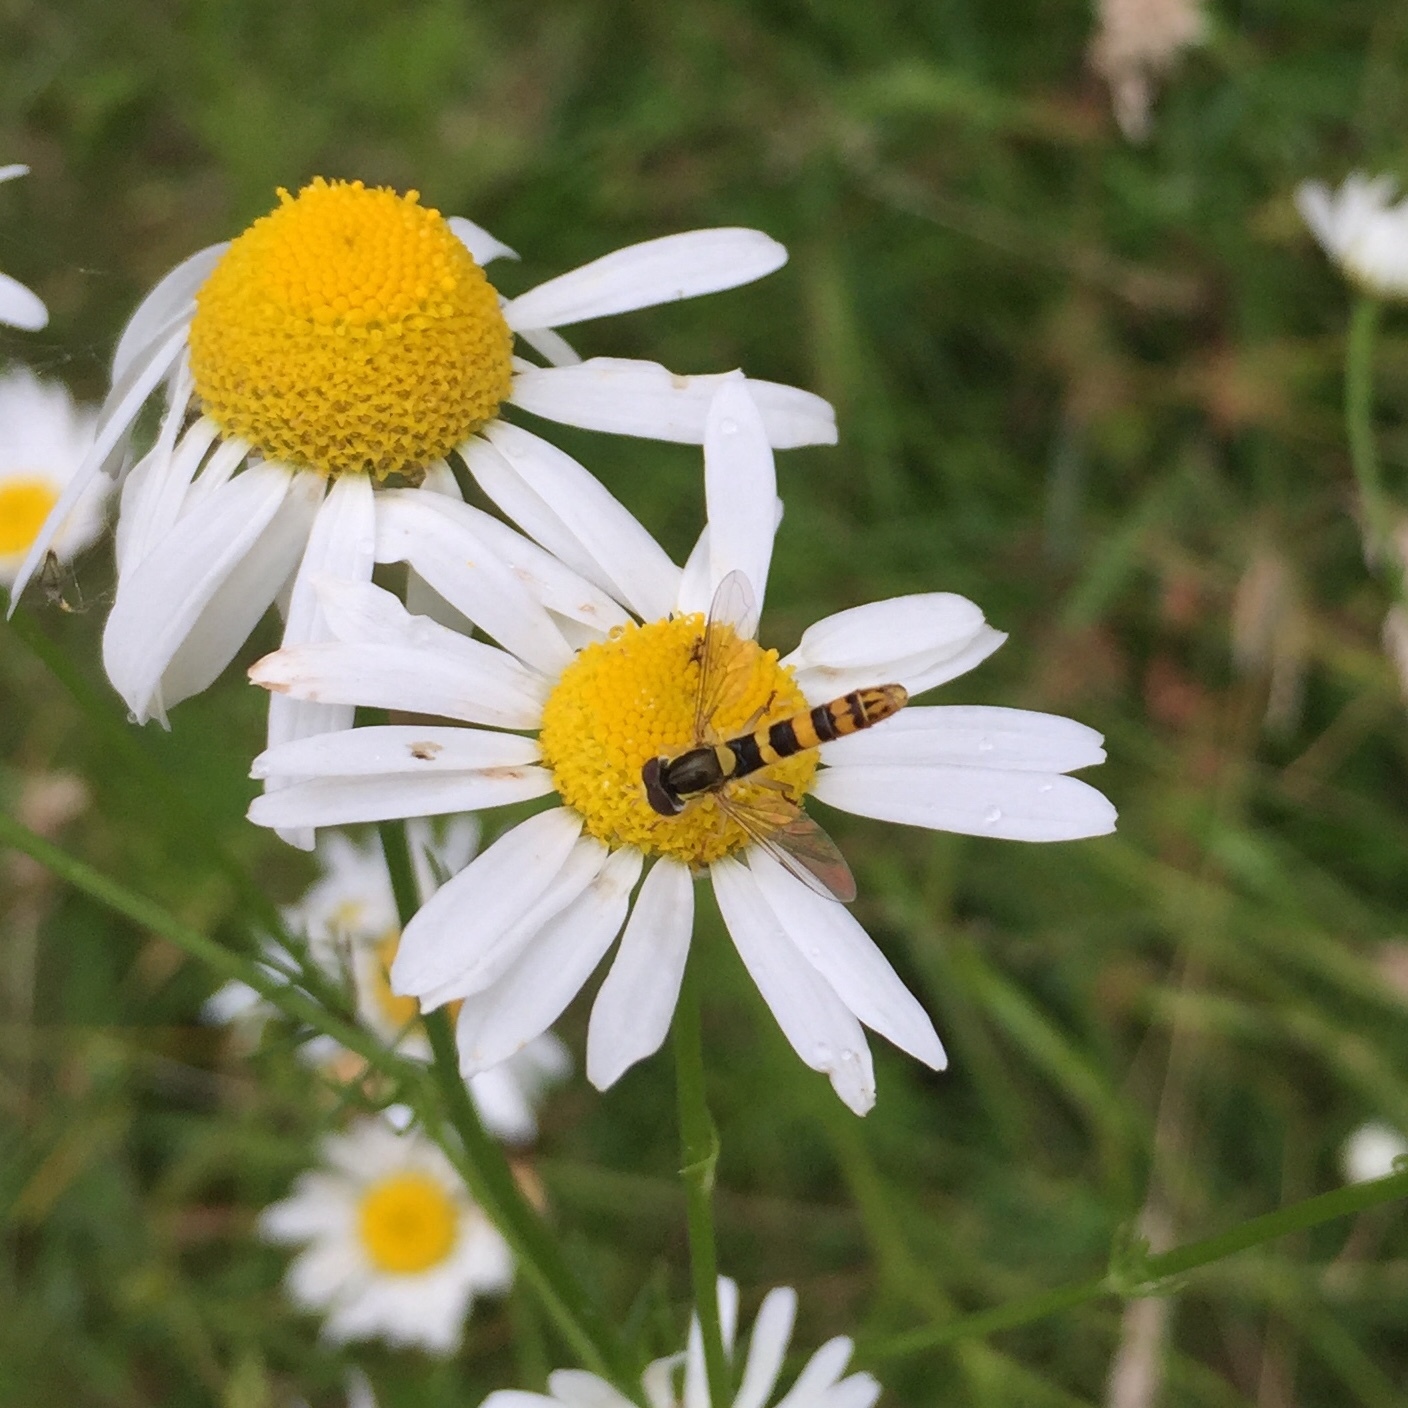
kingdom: Animalia
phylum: Arthropoda
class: Insecta
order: Diptera
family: Syrphidae
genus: Sphaerophoria
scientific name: Sphaerophoria scripta
